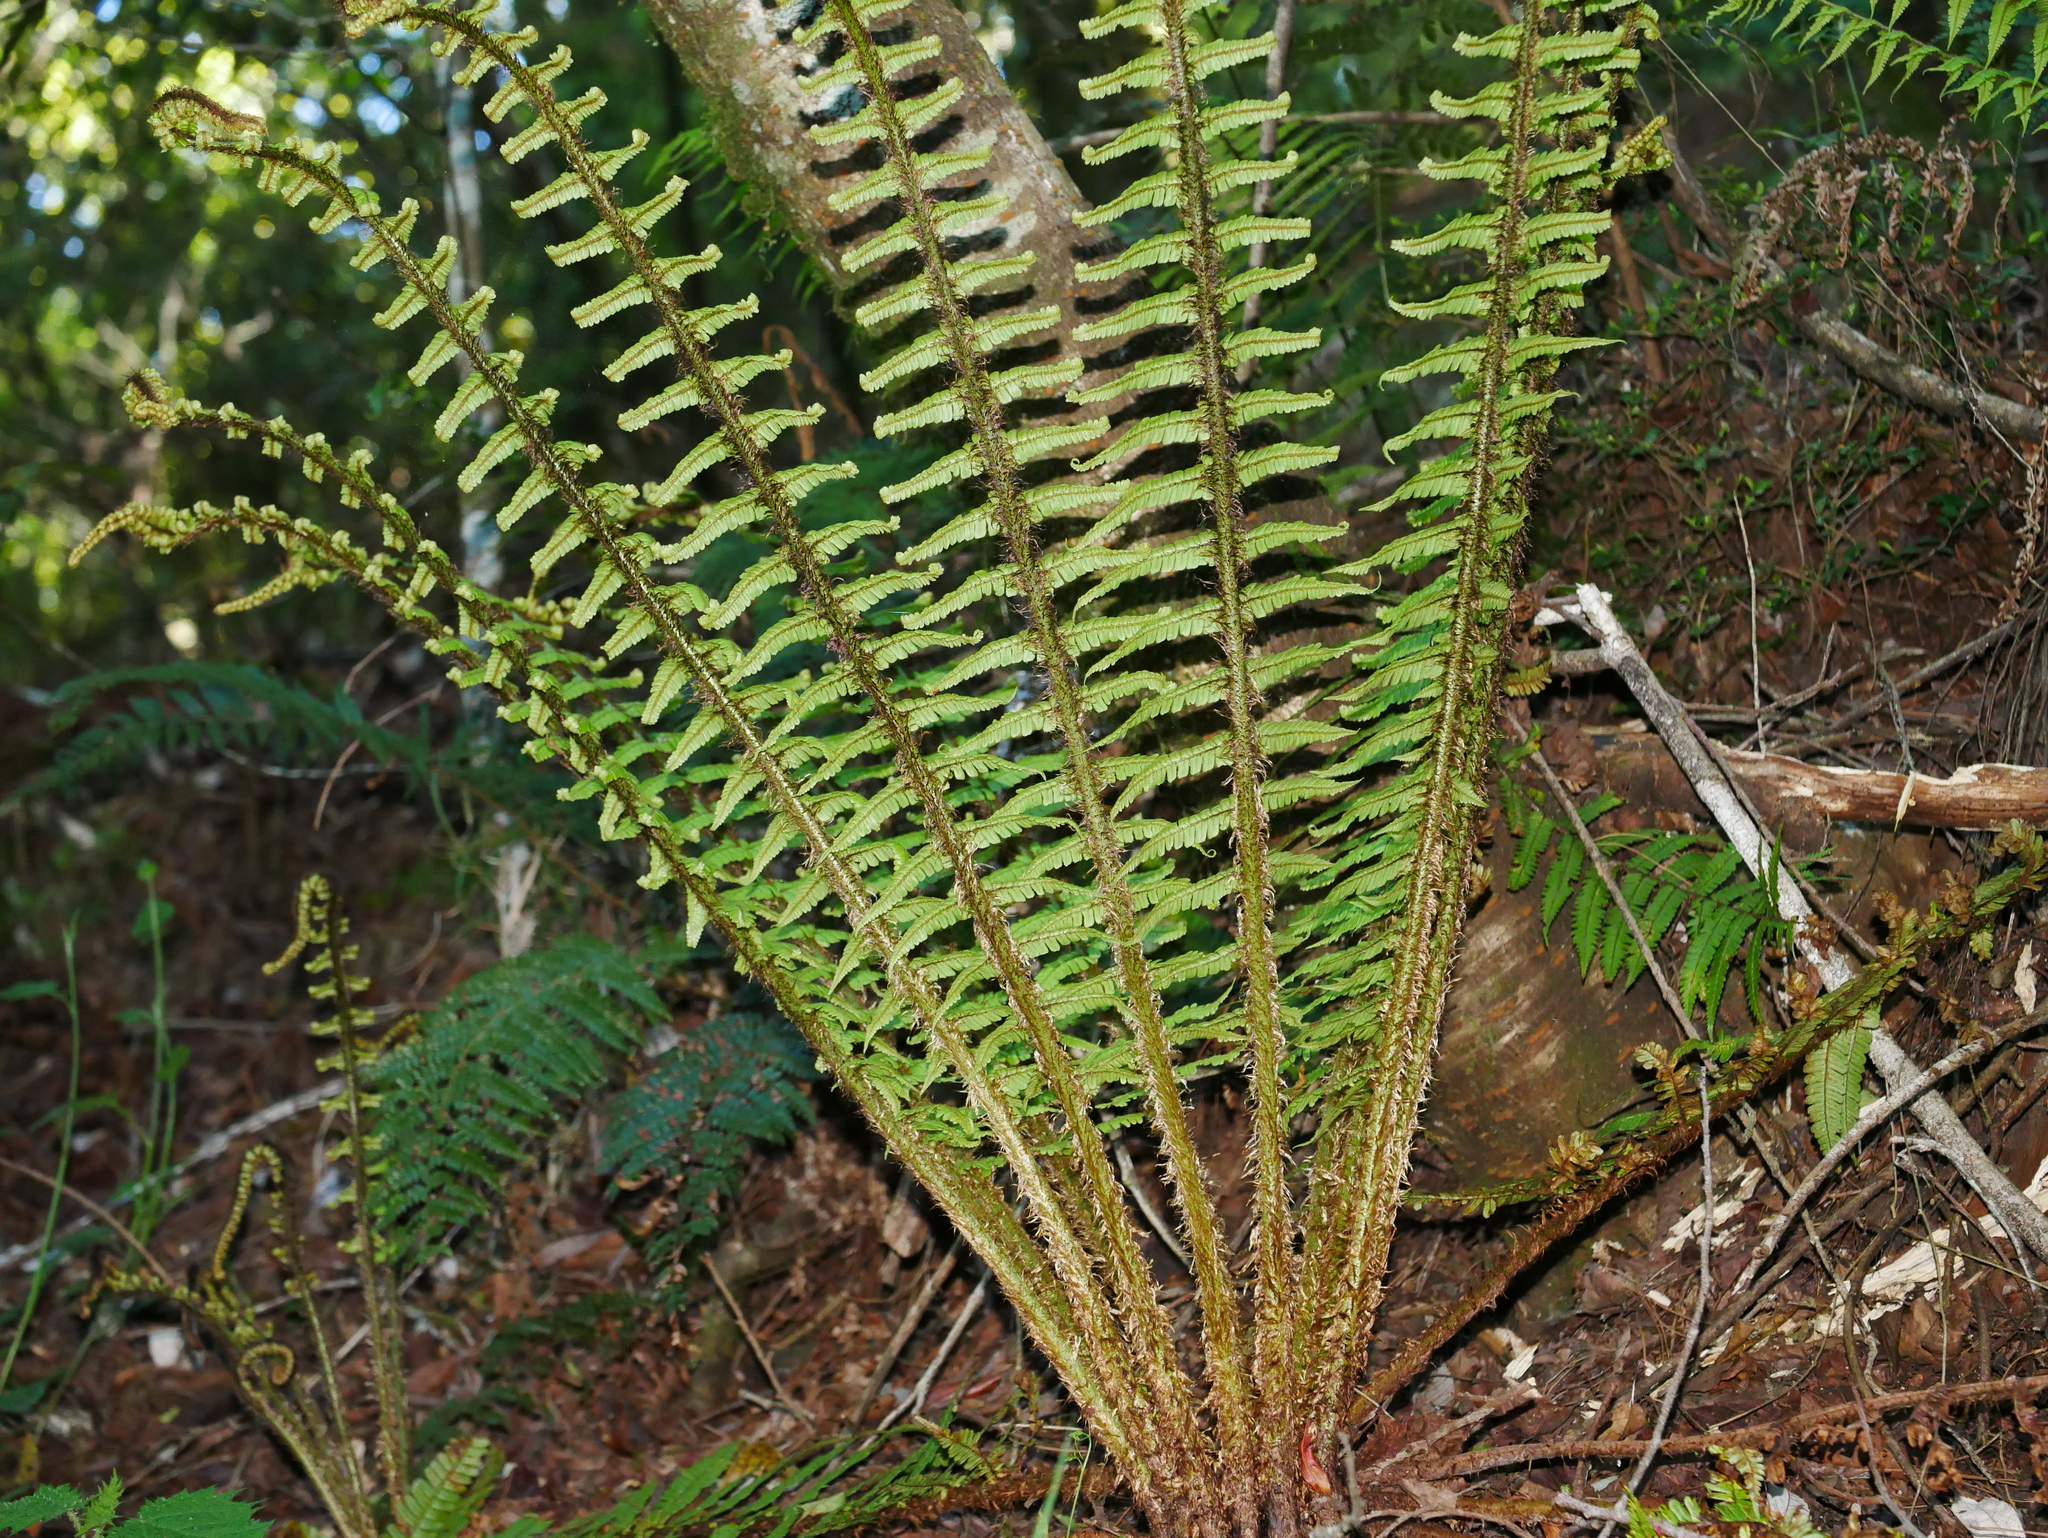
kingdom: Plantae
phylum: Tracheophyta
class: Polypodiopsida
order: Polypodiales
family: Dryopteridaceae
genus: Dryopteris
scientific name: Dryopteris wallichiana
